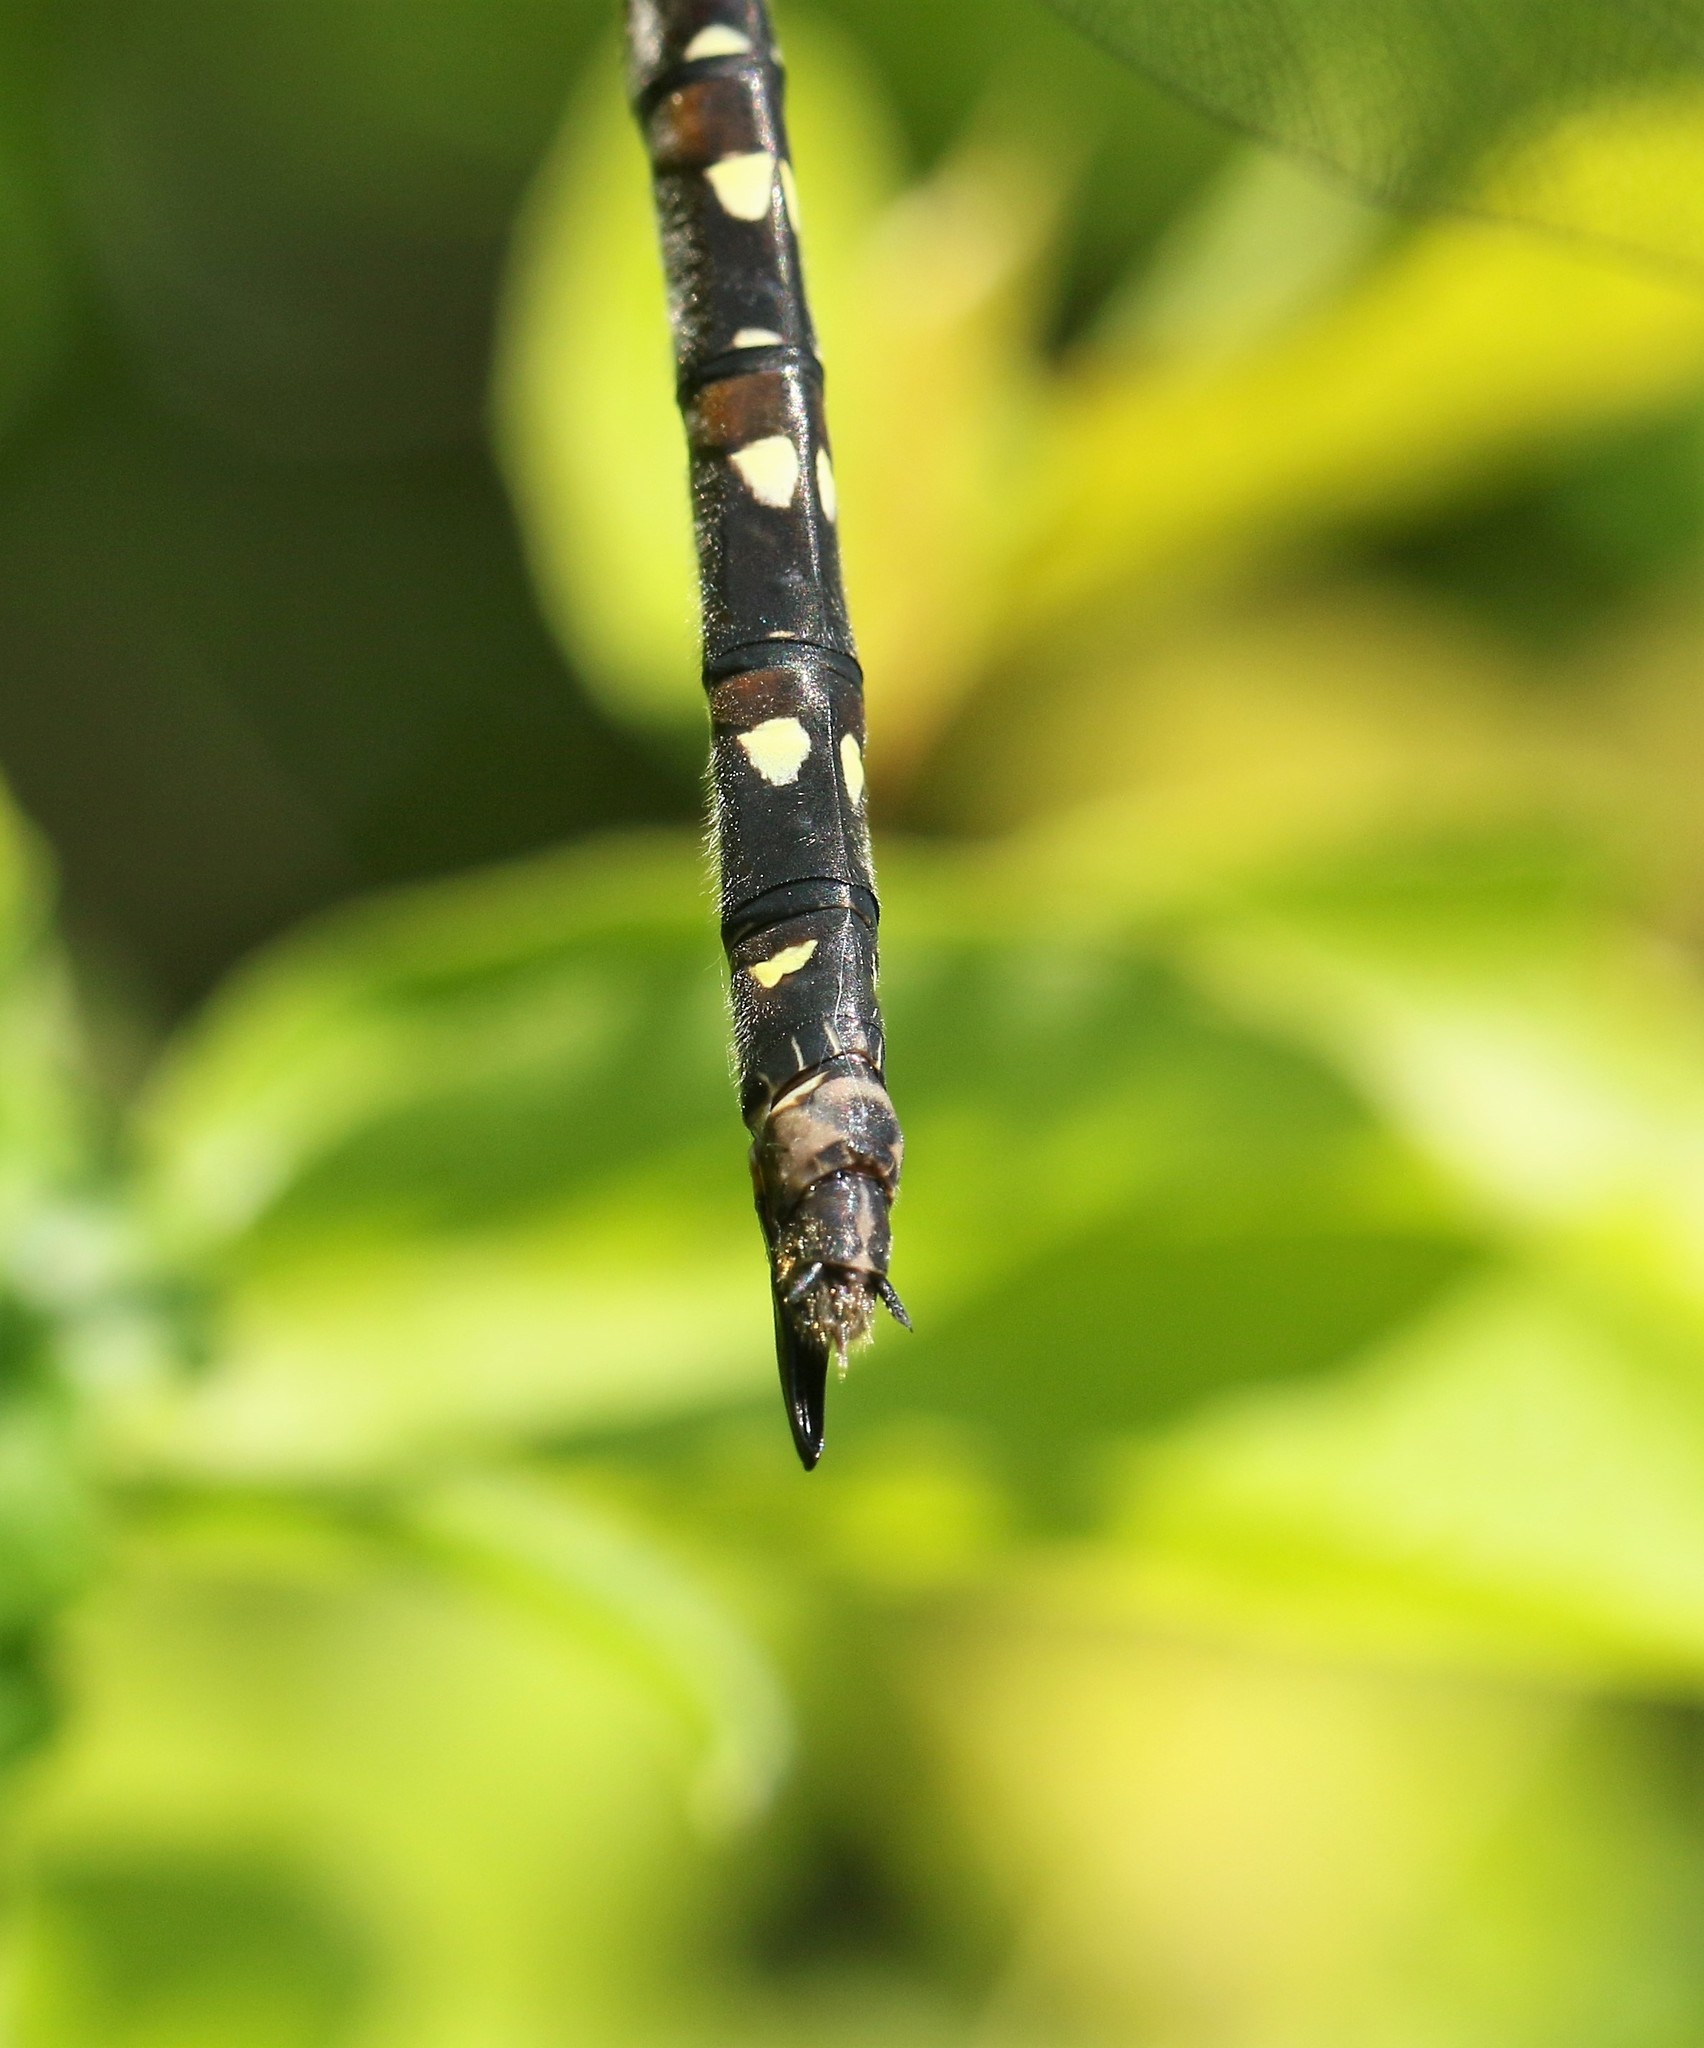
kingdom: Animalia
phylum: Arthropoda
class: Insecta
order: Odonata
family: Cordulegastridae
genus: Cordulegaster
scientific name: Cordulegaster maculata
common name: Twin-spotted spiketail
